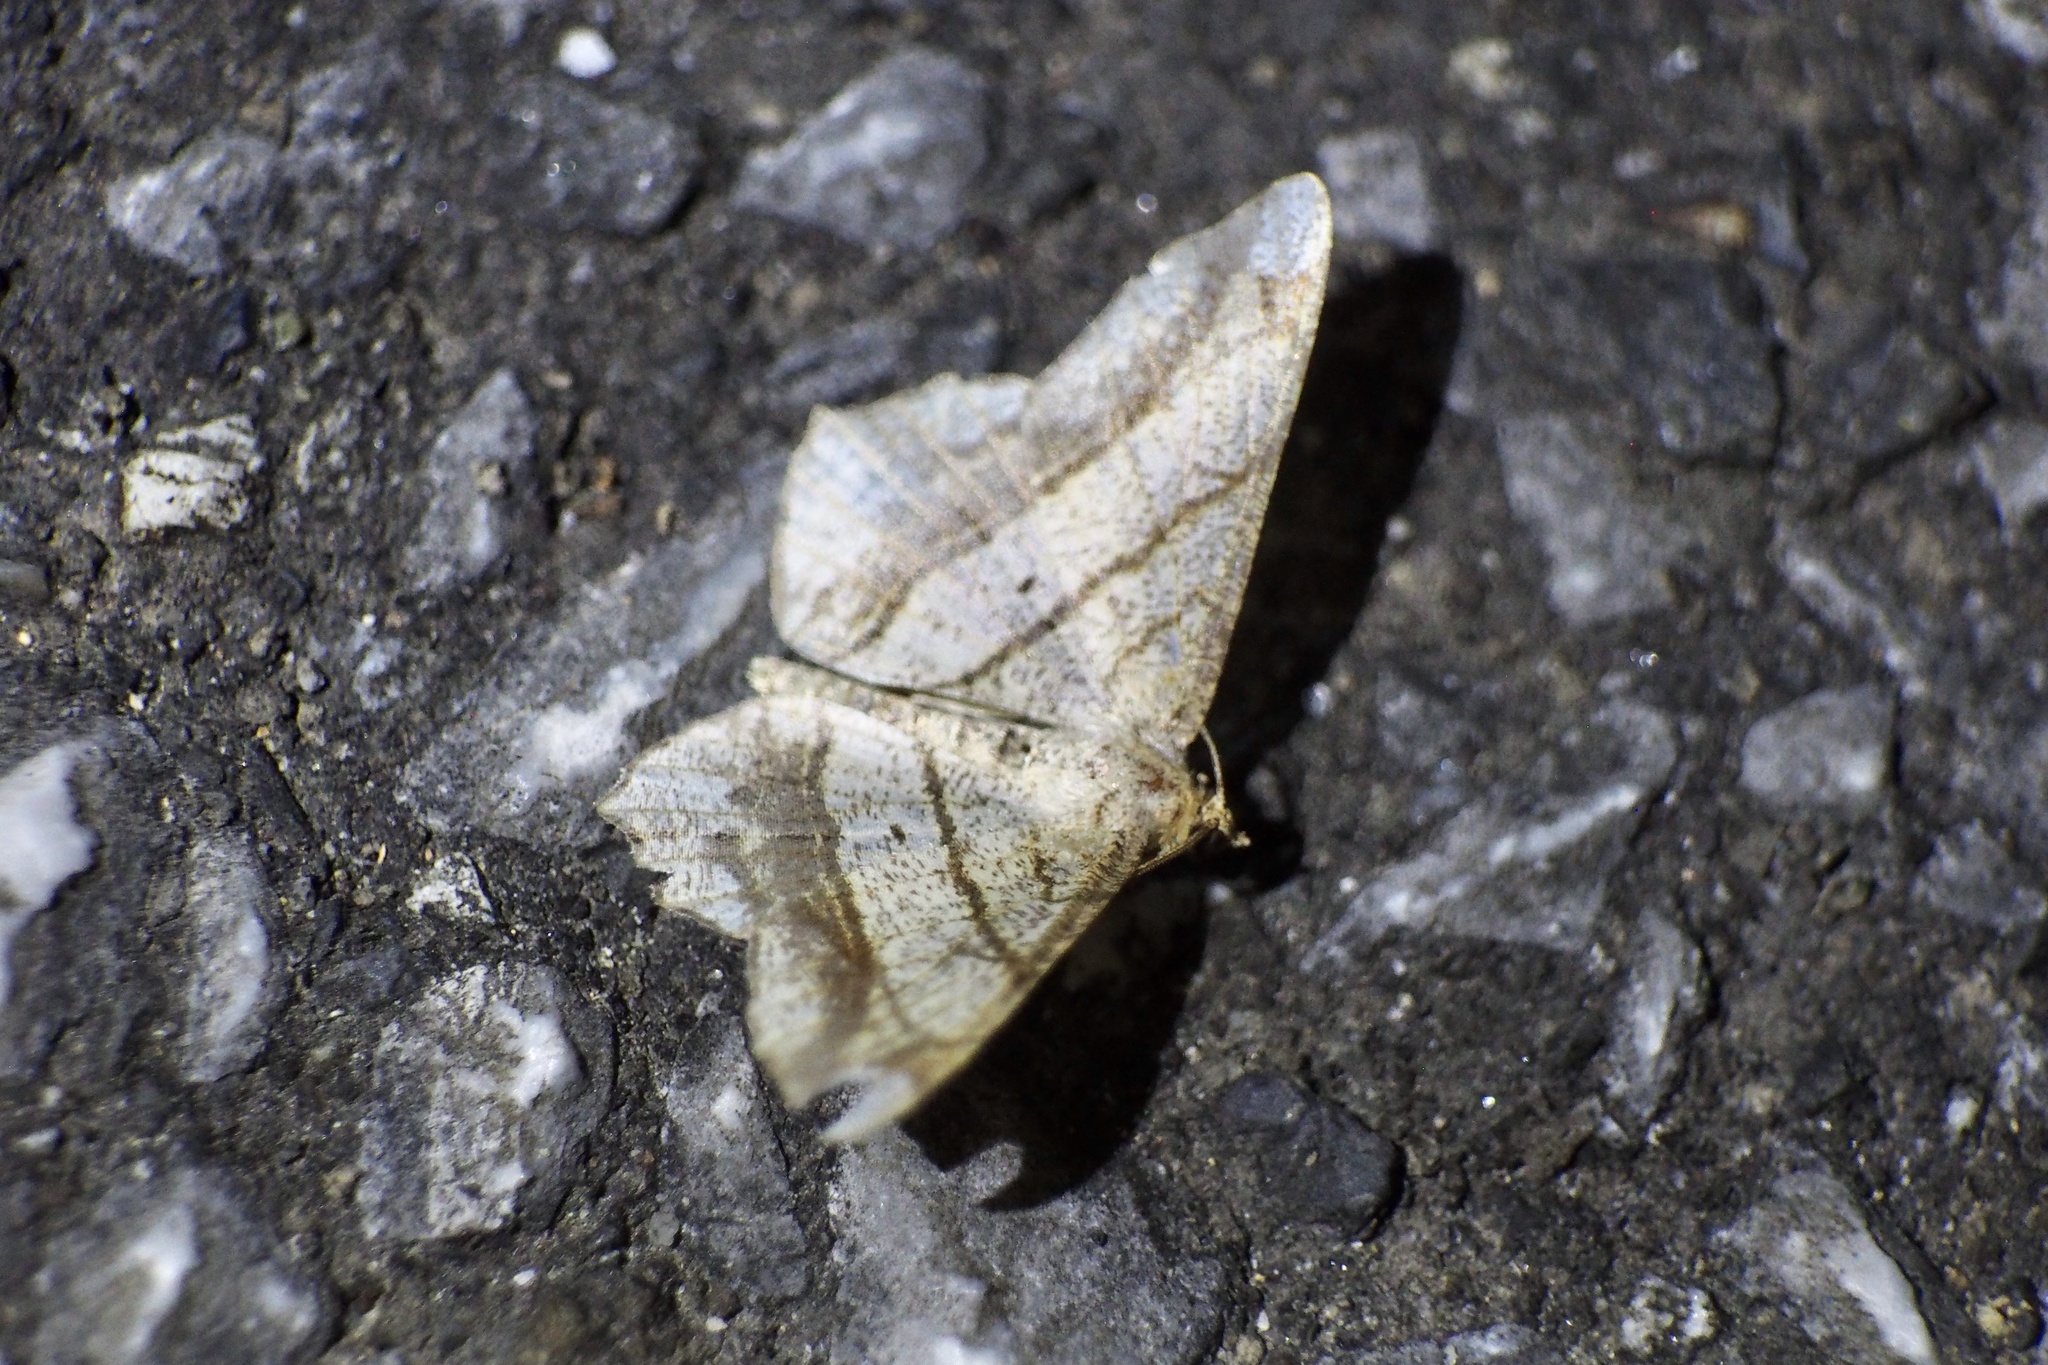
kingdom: Animalia
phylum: Arthropoda
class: Insecta
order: Lepidoptera
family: Geometridae
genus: Chiasmia
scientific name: Chiasmia defixaria
